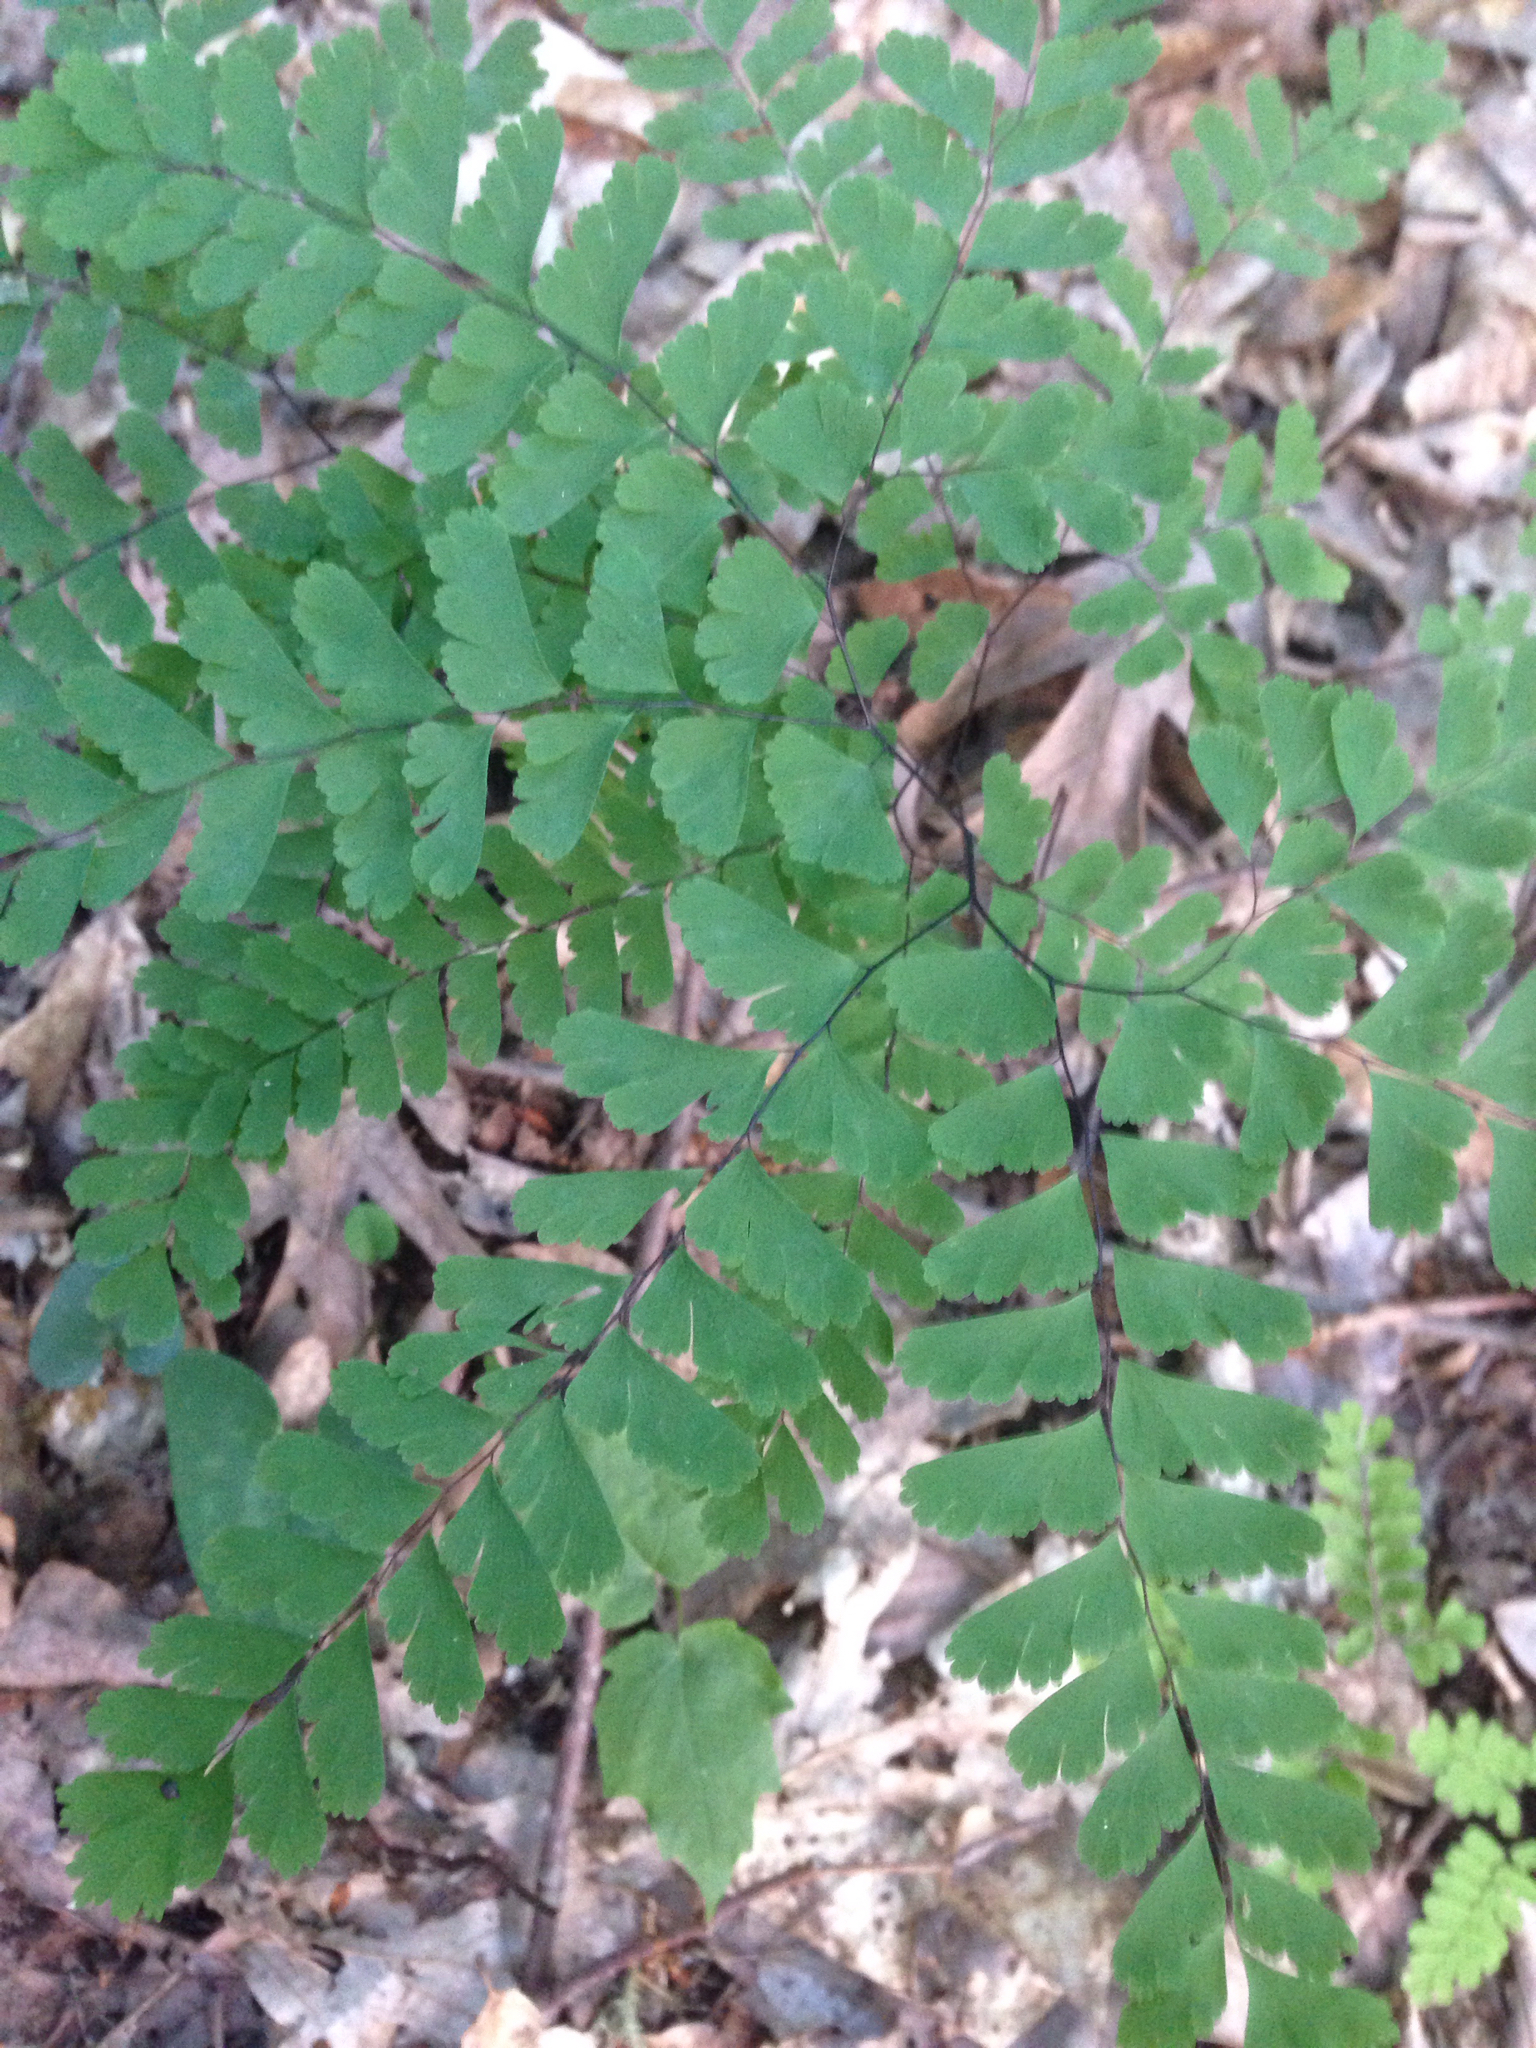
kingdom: Plantae
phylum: Tracheophyta
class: Polypodiopsida
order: Polypodiales
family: Pteridaceae
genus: Adiantum
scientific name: Adiantum pedatum
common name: Five-finger fern
